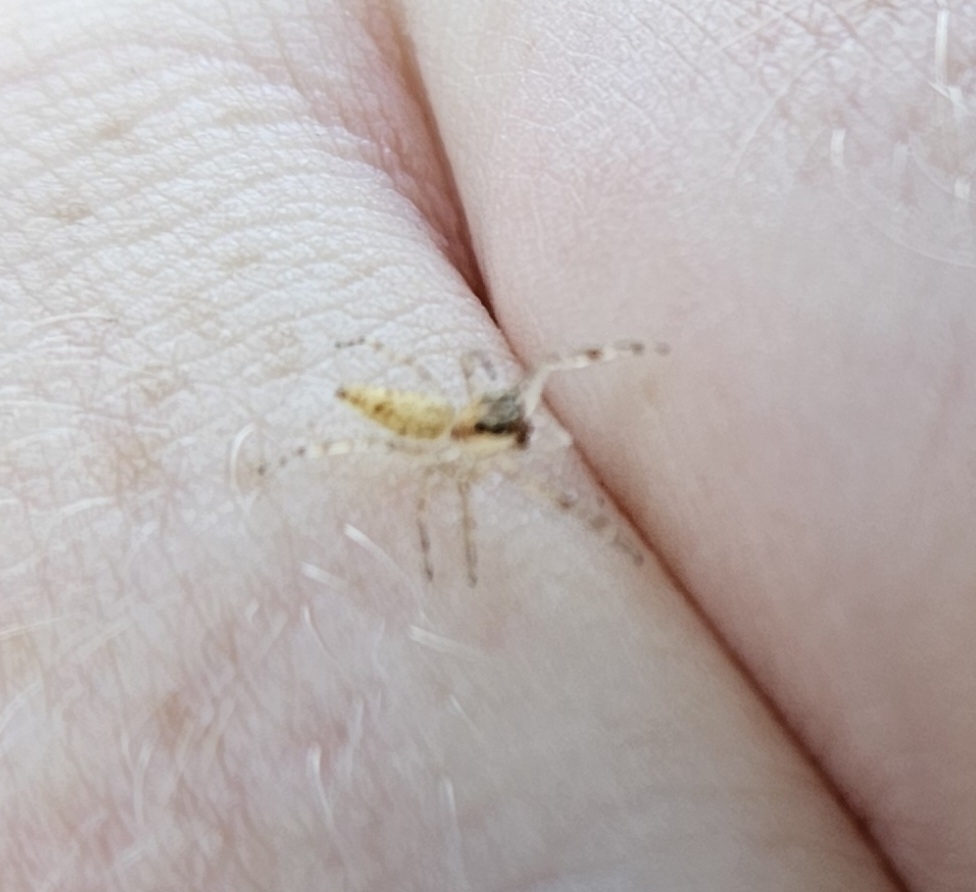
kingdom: Animalia
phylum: Arthropoda
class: Arachnida
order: Araneae
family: Salticidae
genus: Helpis
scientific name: Helpis minitabunda
